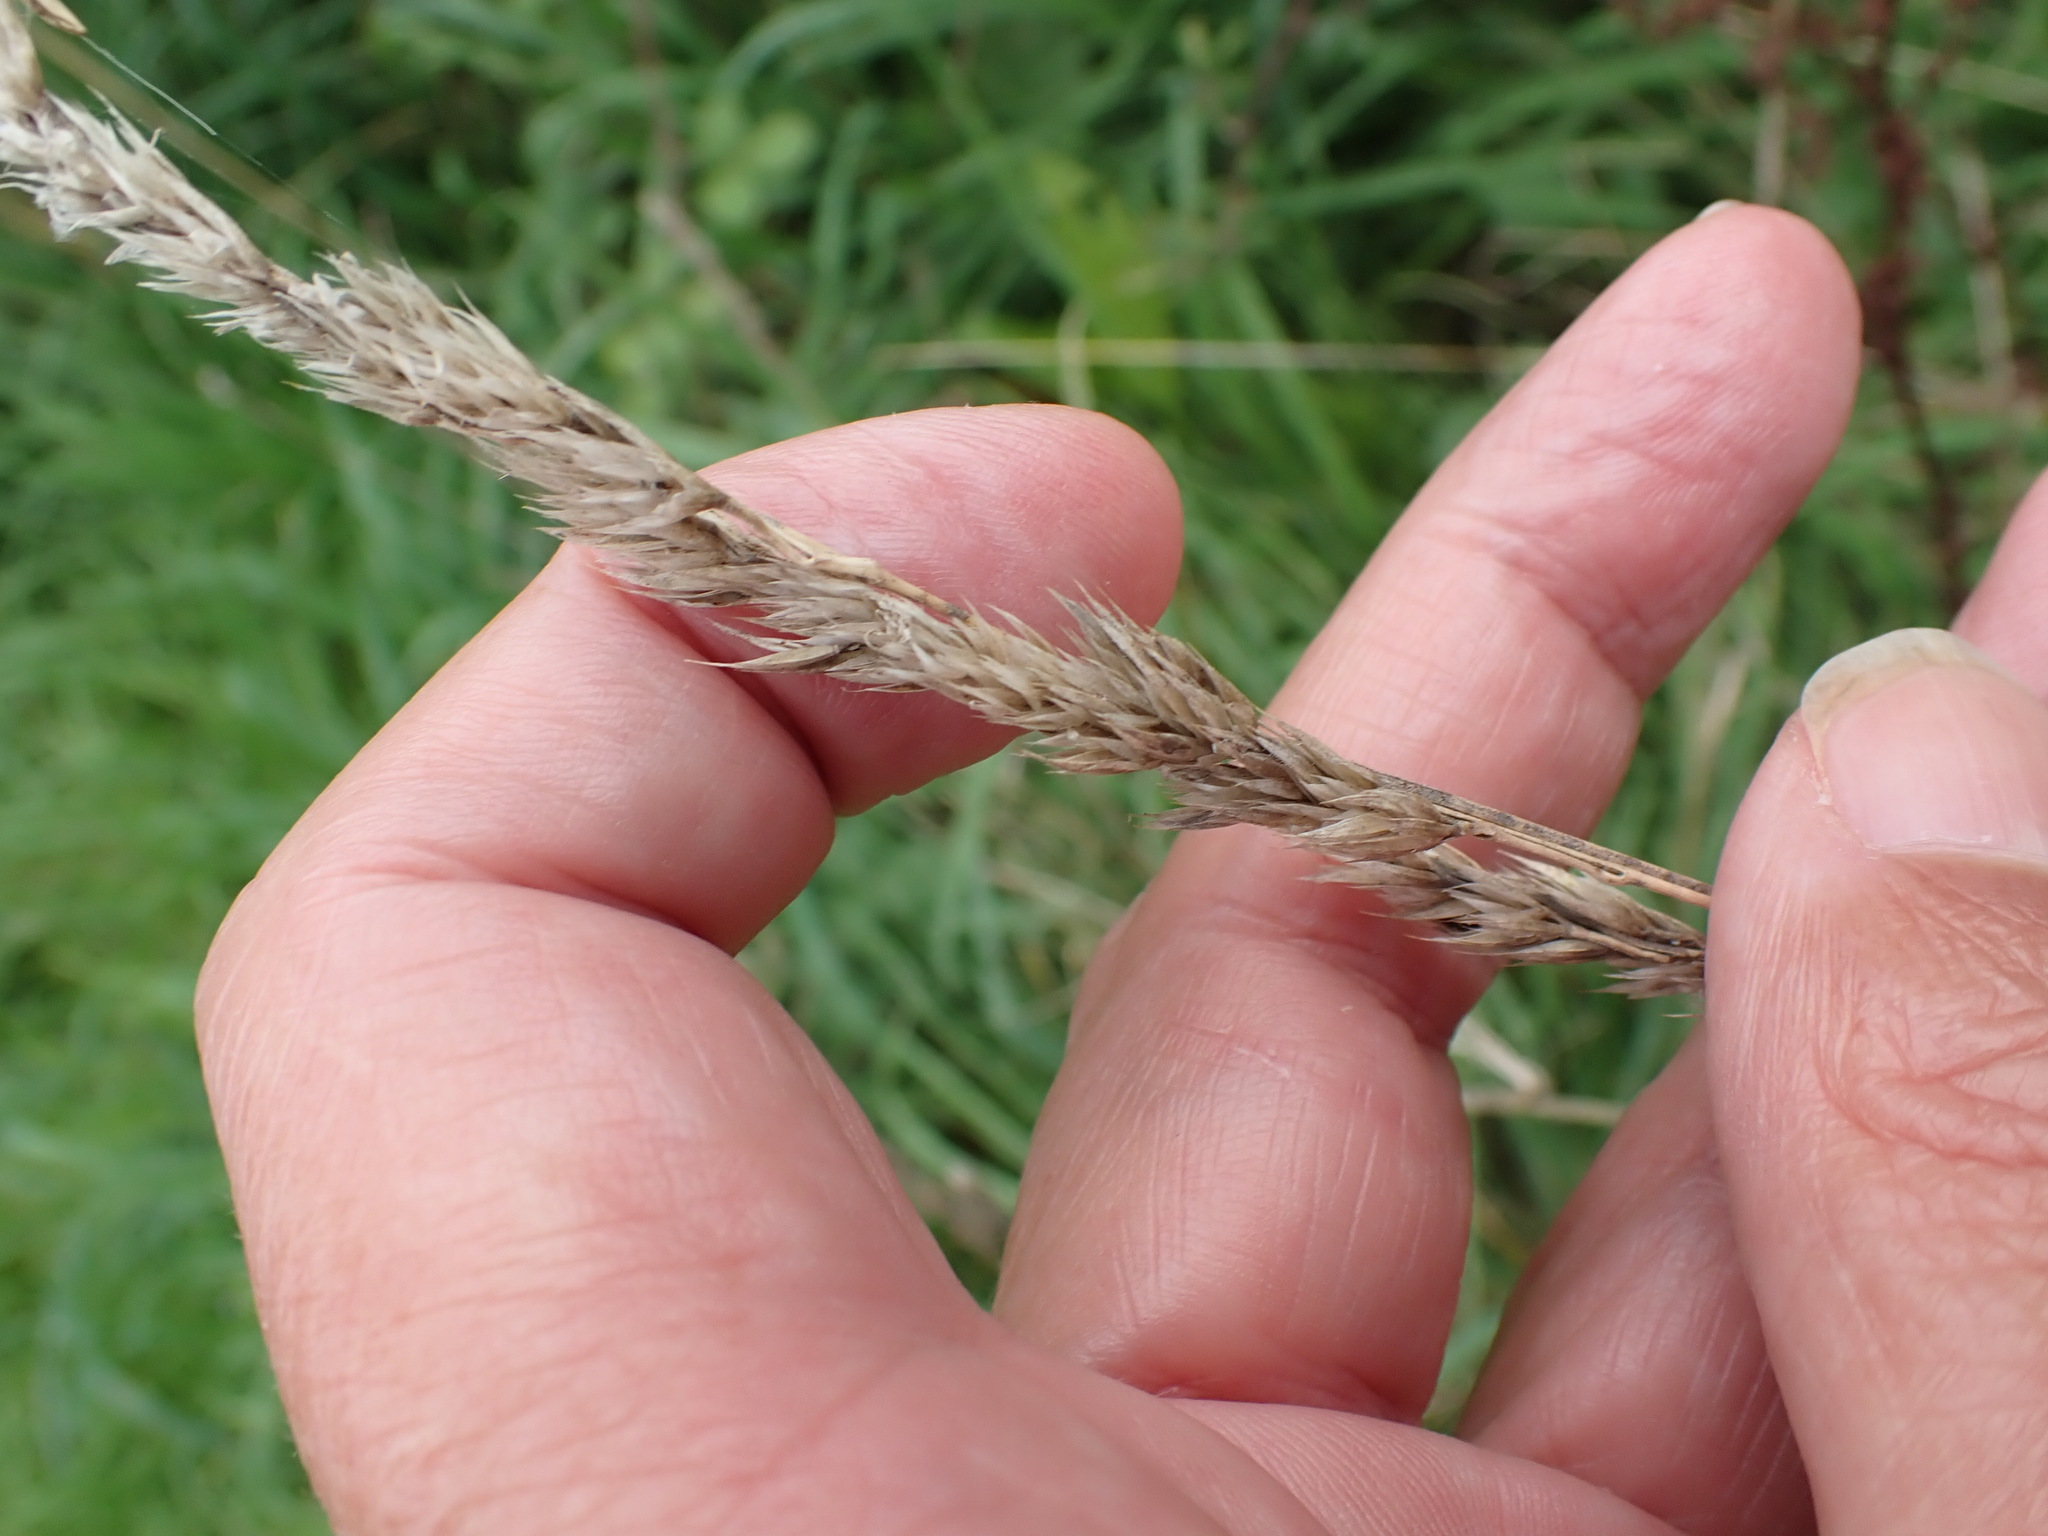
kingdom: Plantae
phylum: Tracheophyta
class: Liliopsida
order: Poales
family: Poaceae
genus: Dactylis
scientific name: Dactylis glomerata
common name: Orchardgrass
